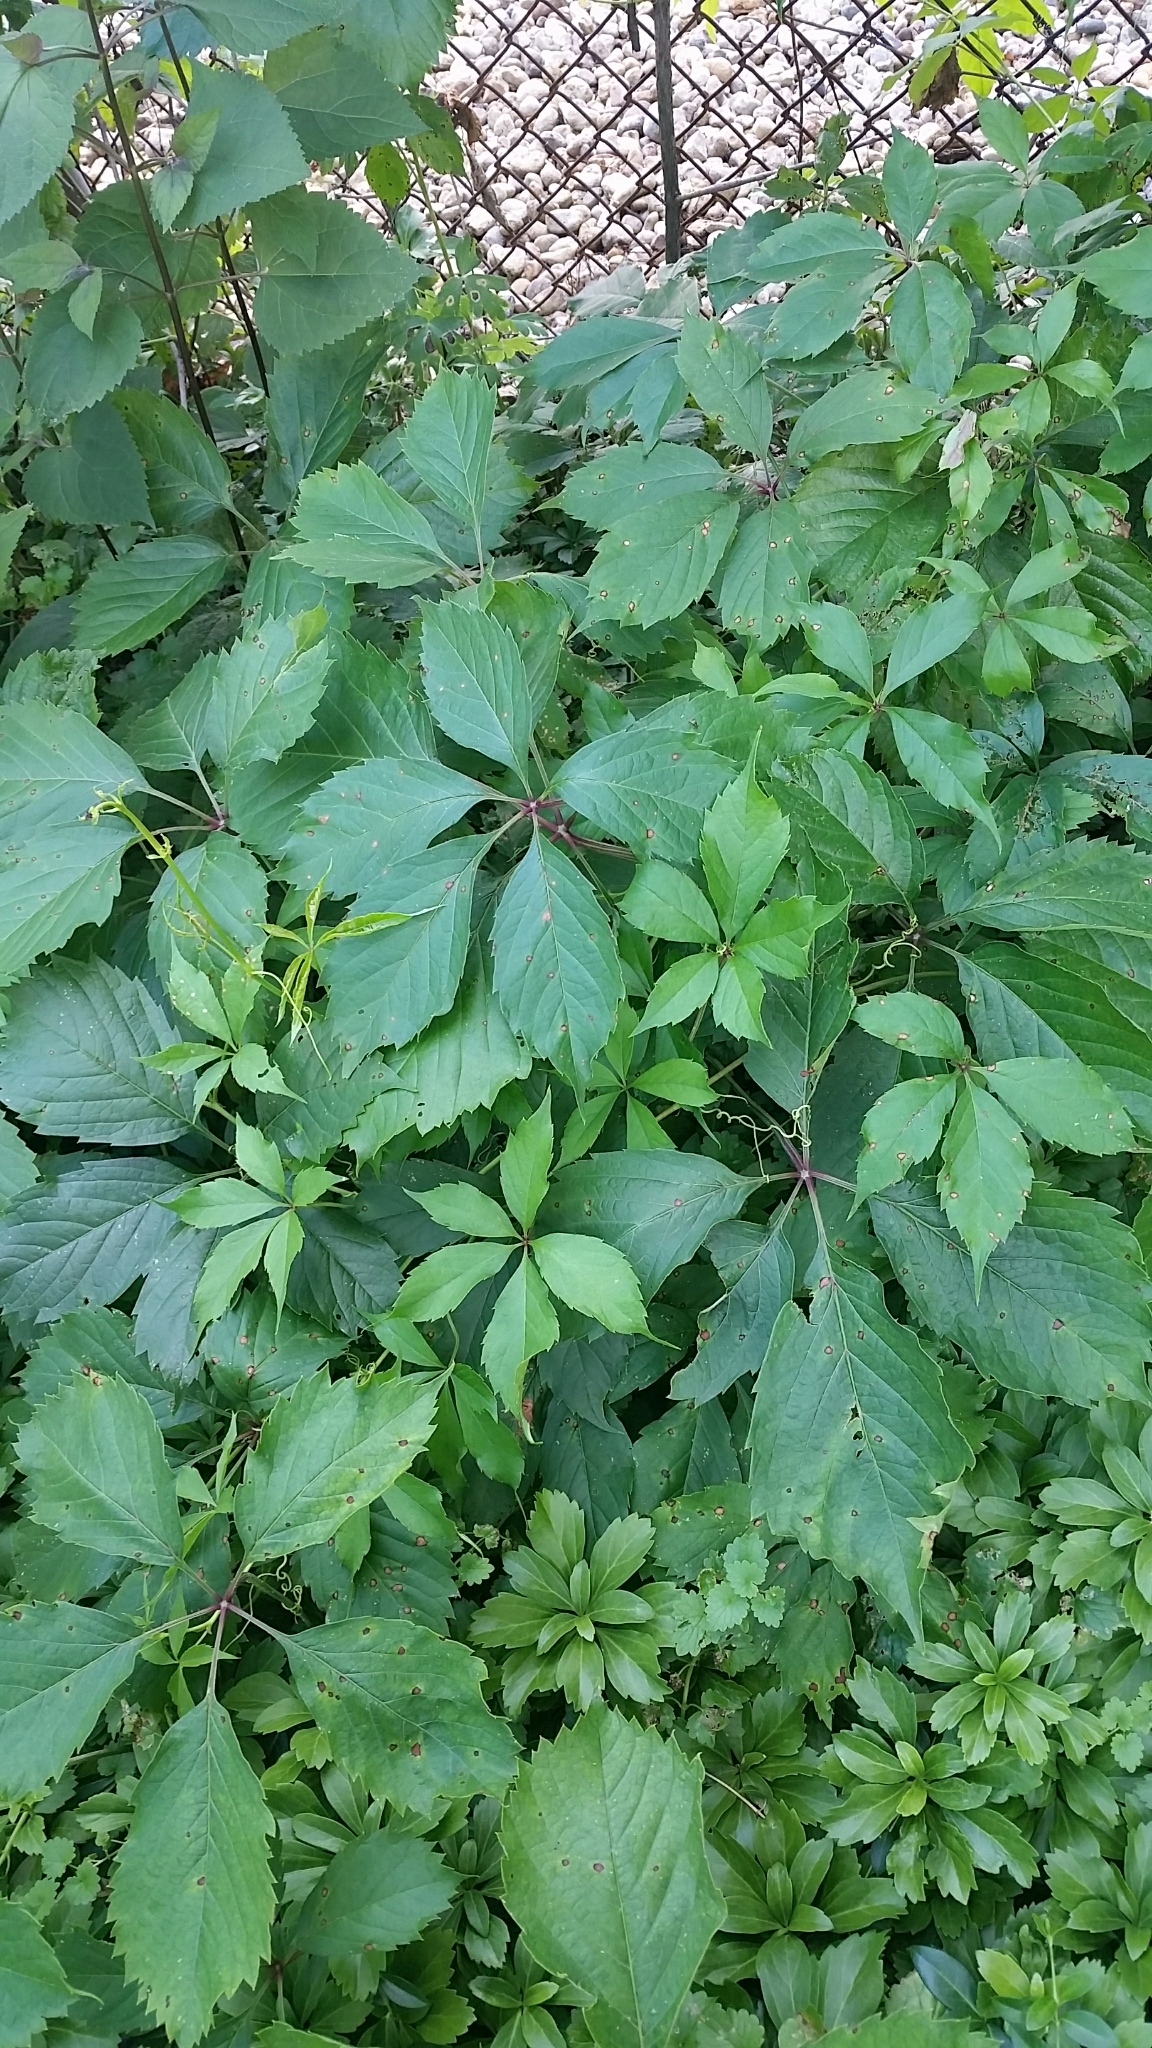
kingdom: Plantae
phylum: Tracheophyta
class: Magnoliopsida
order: Vitales
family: Vitaceae
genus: Parthenocissus
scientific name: Parthenocissus inserta
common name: False virginia-creeper
